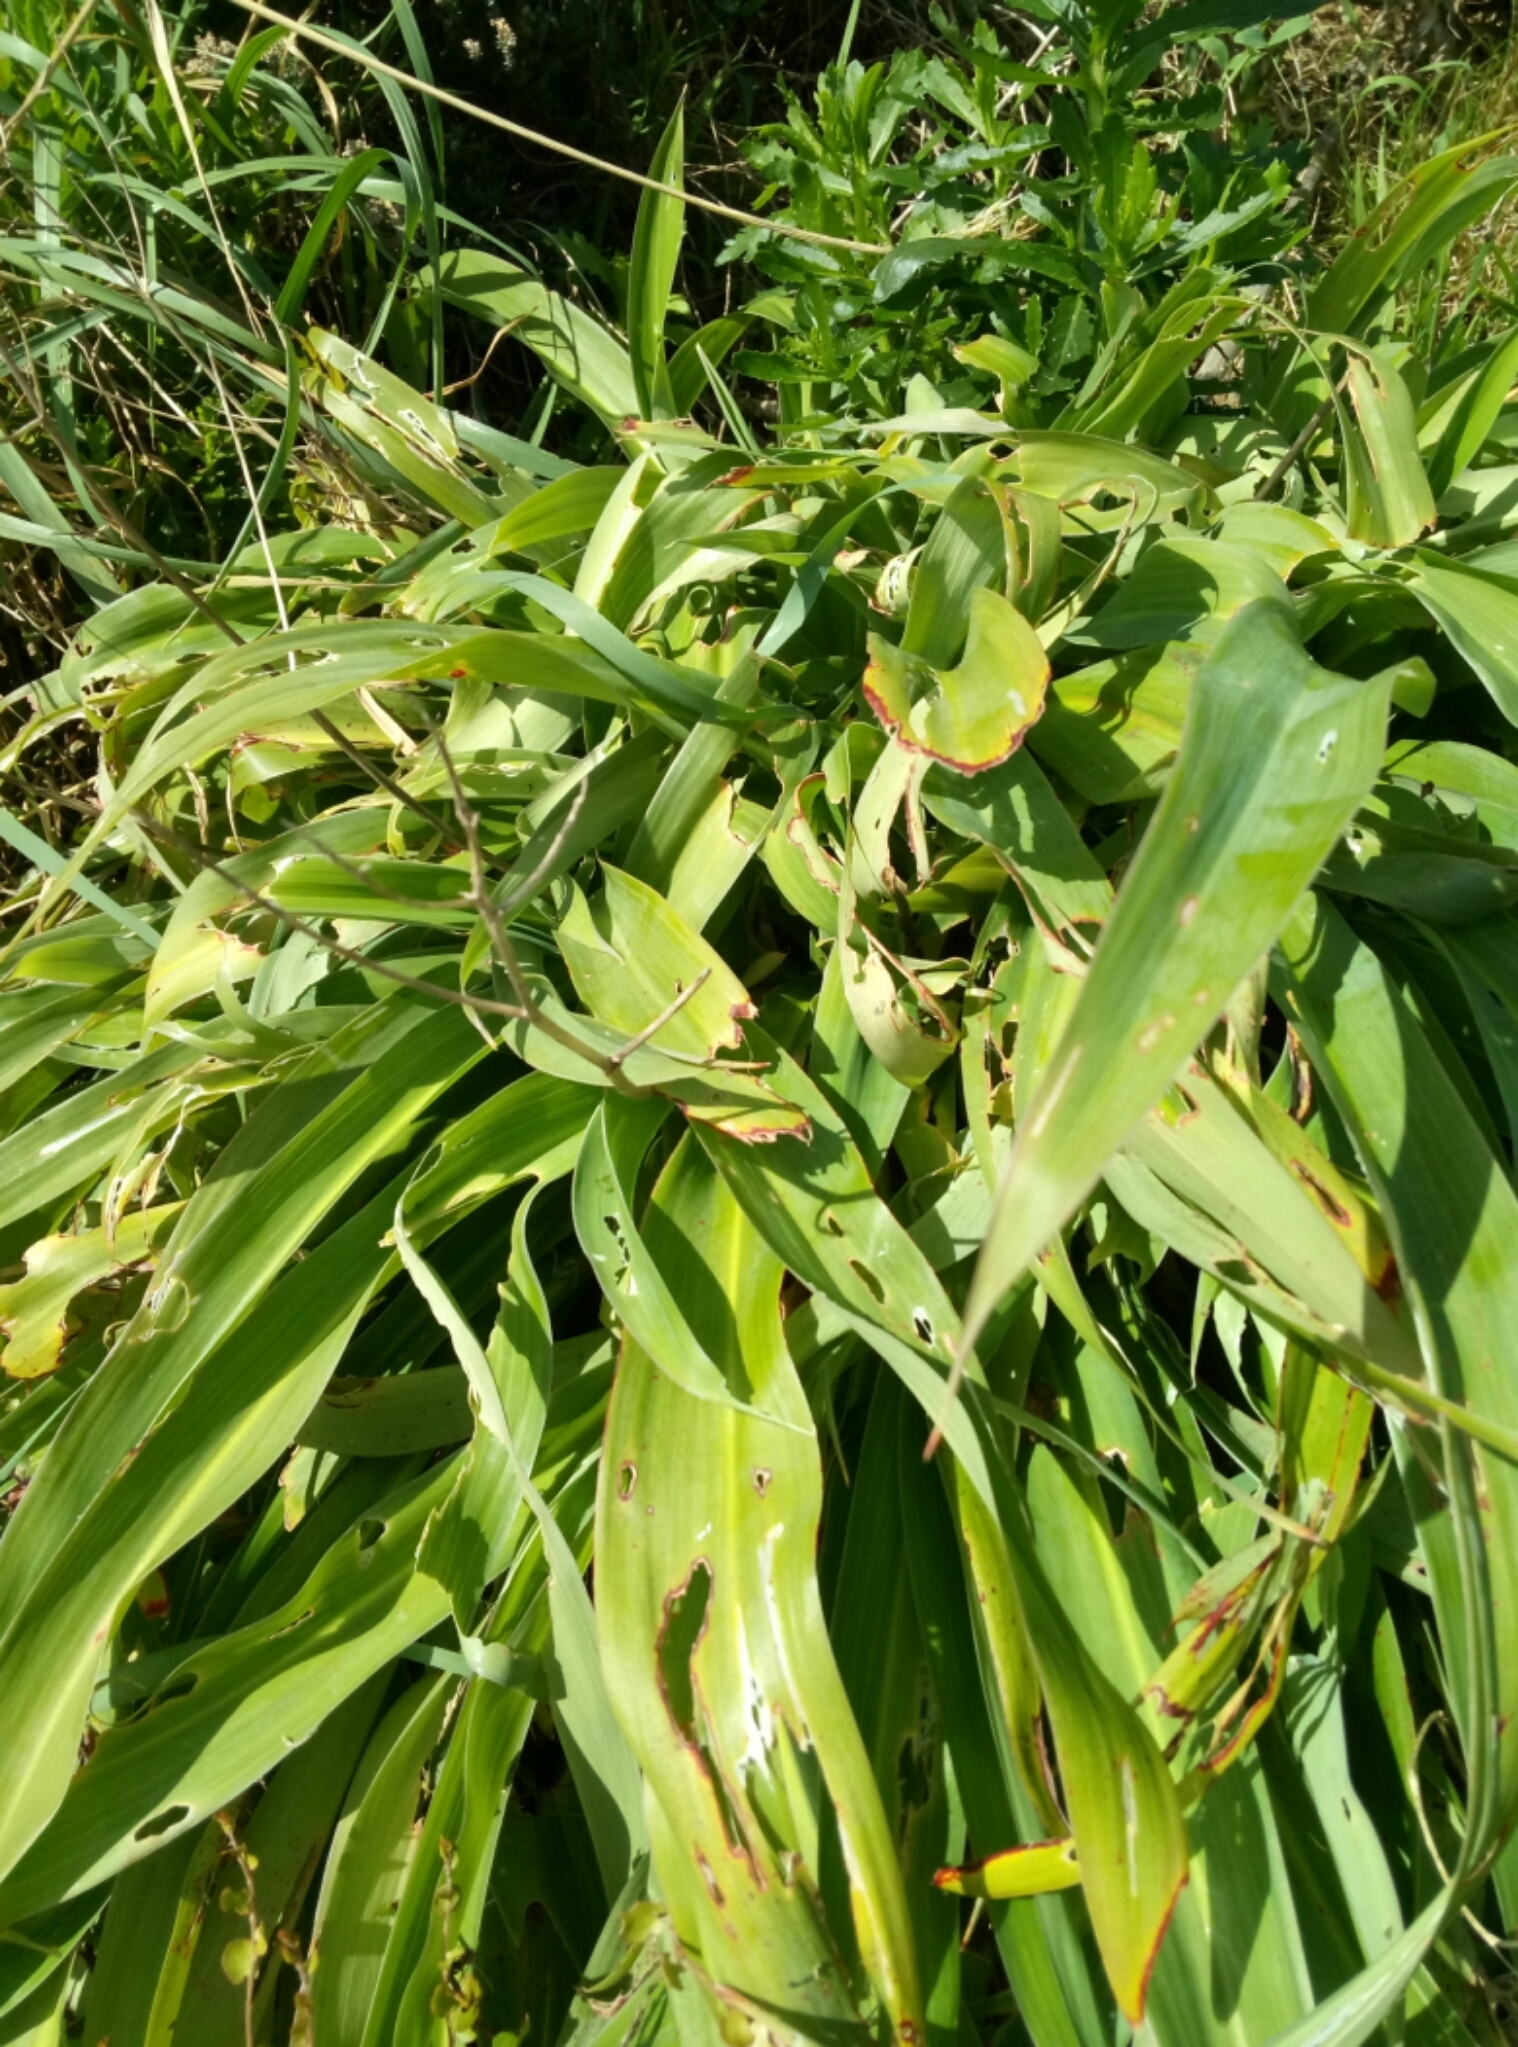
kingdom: Plantae
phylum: Tracheophyta
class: Liliopsida
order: Asparagales
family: Asparagaceae
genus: Arthropodium
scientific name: Arthropodium cirratum
